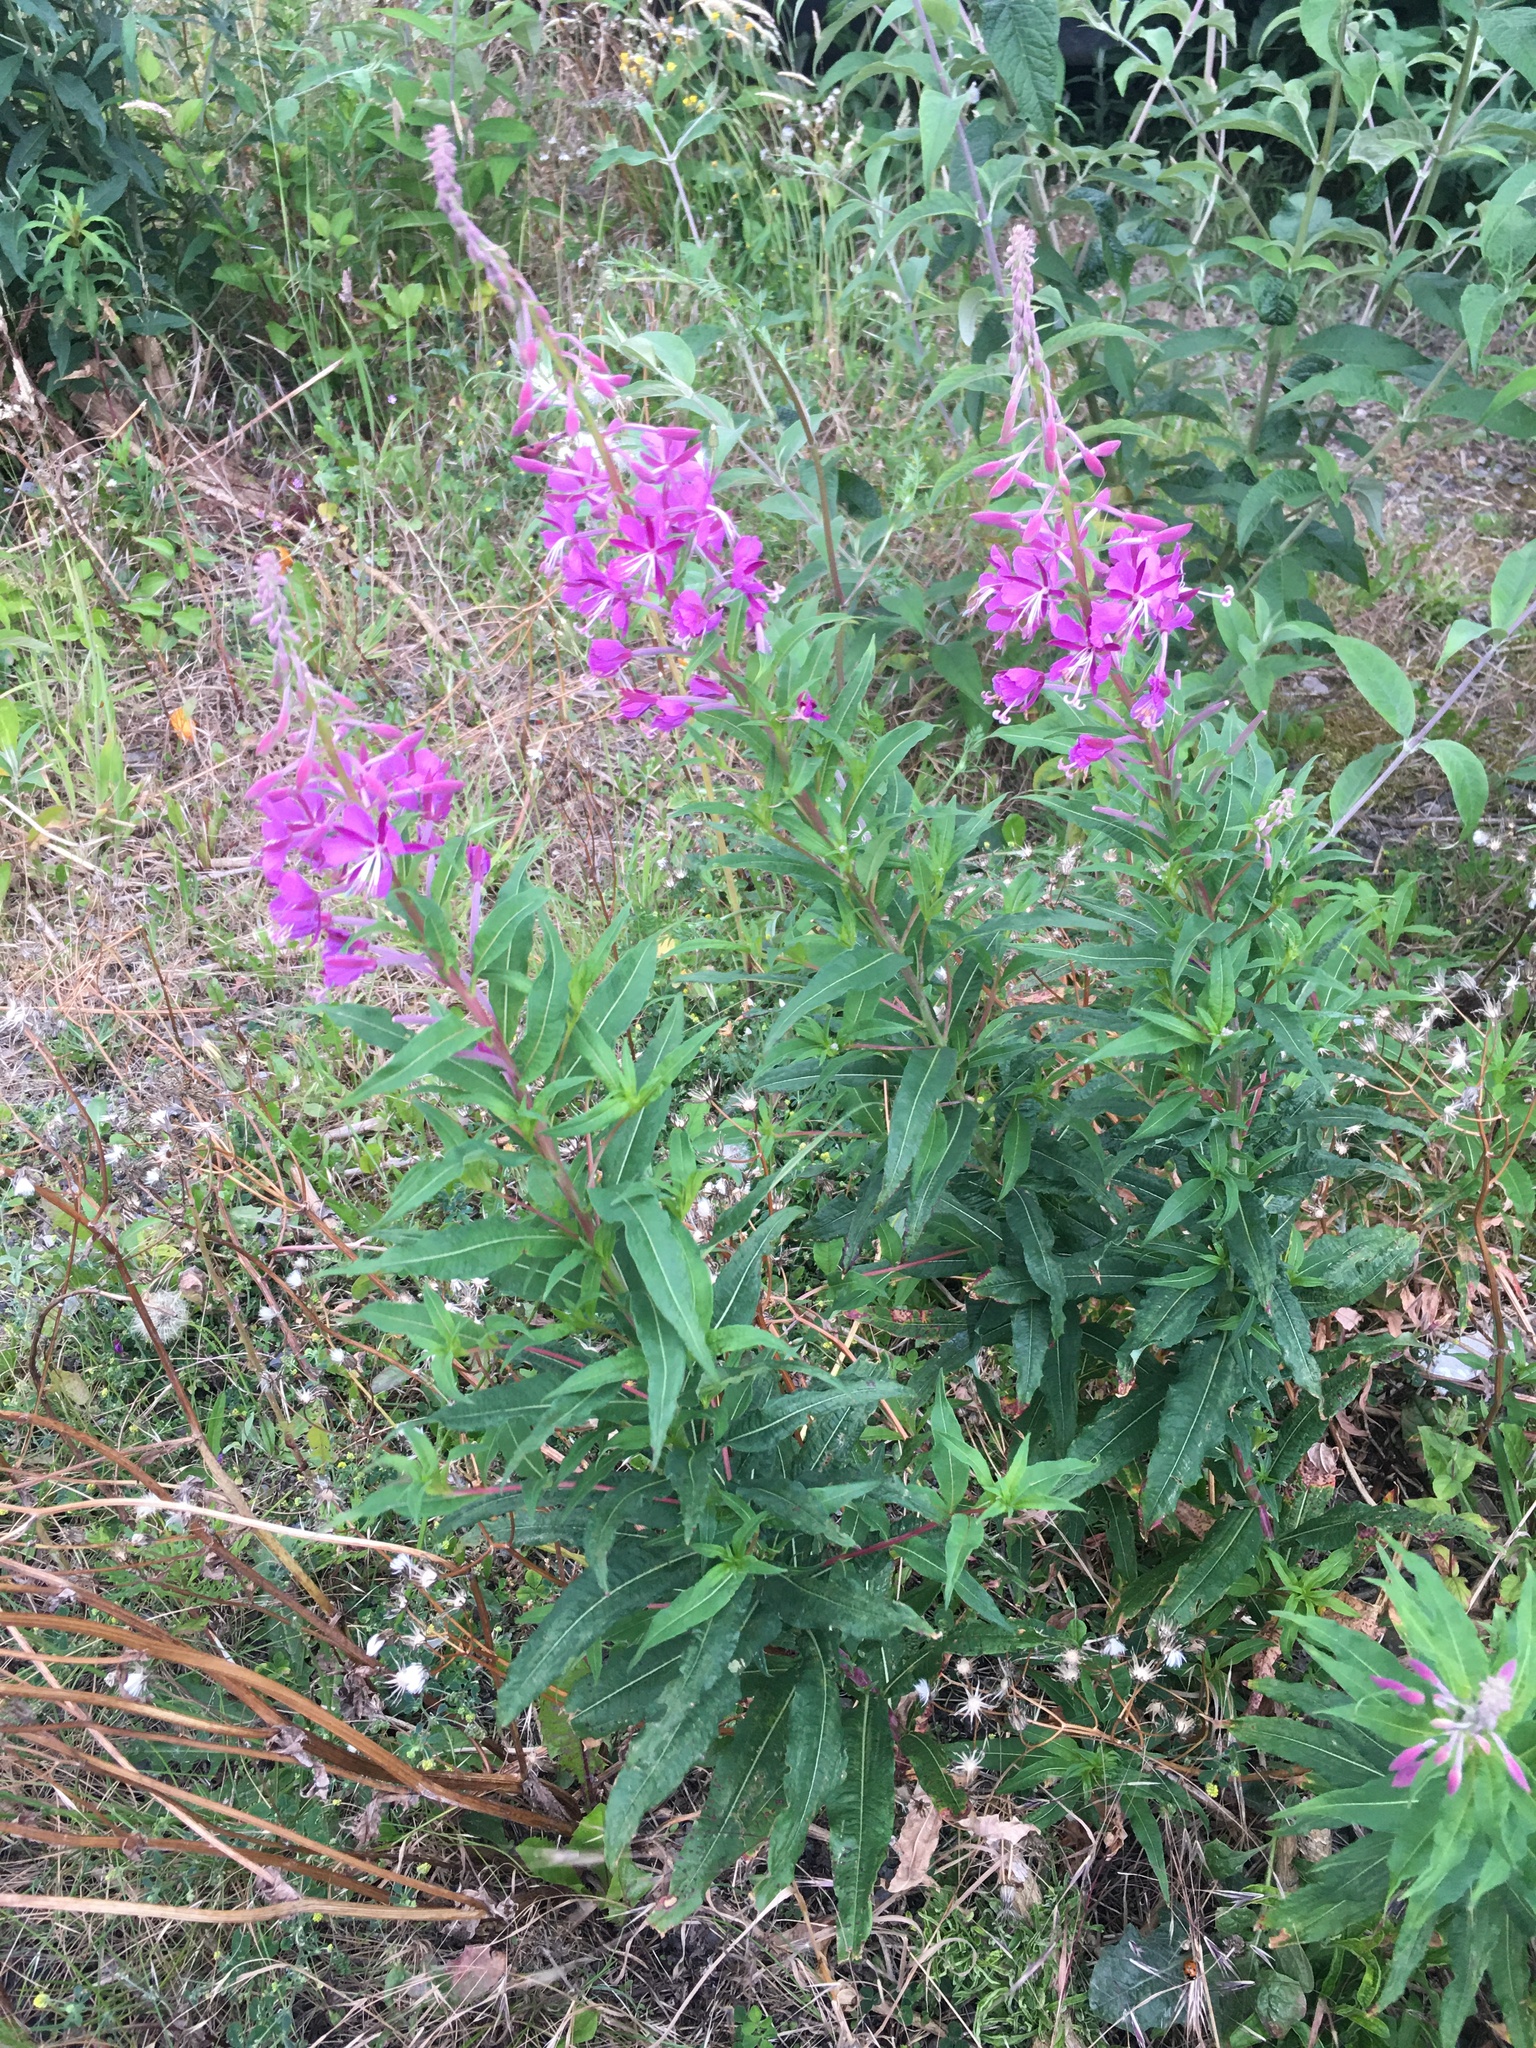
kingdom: Plantae
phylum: Tracheophyta
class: Magnoliopsida
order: Myrtales
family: Onagraceae
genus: Chamaenerion
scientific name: Chamaenerion angustifolium
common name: Fireweed
